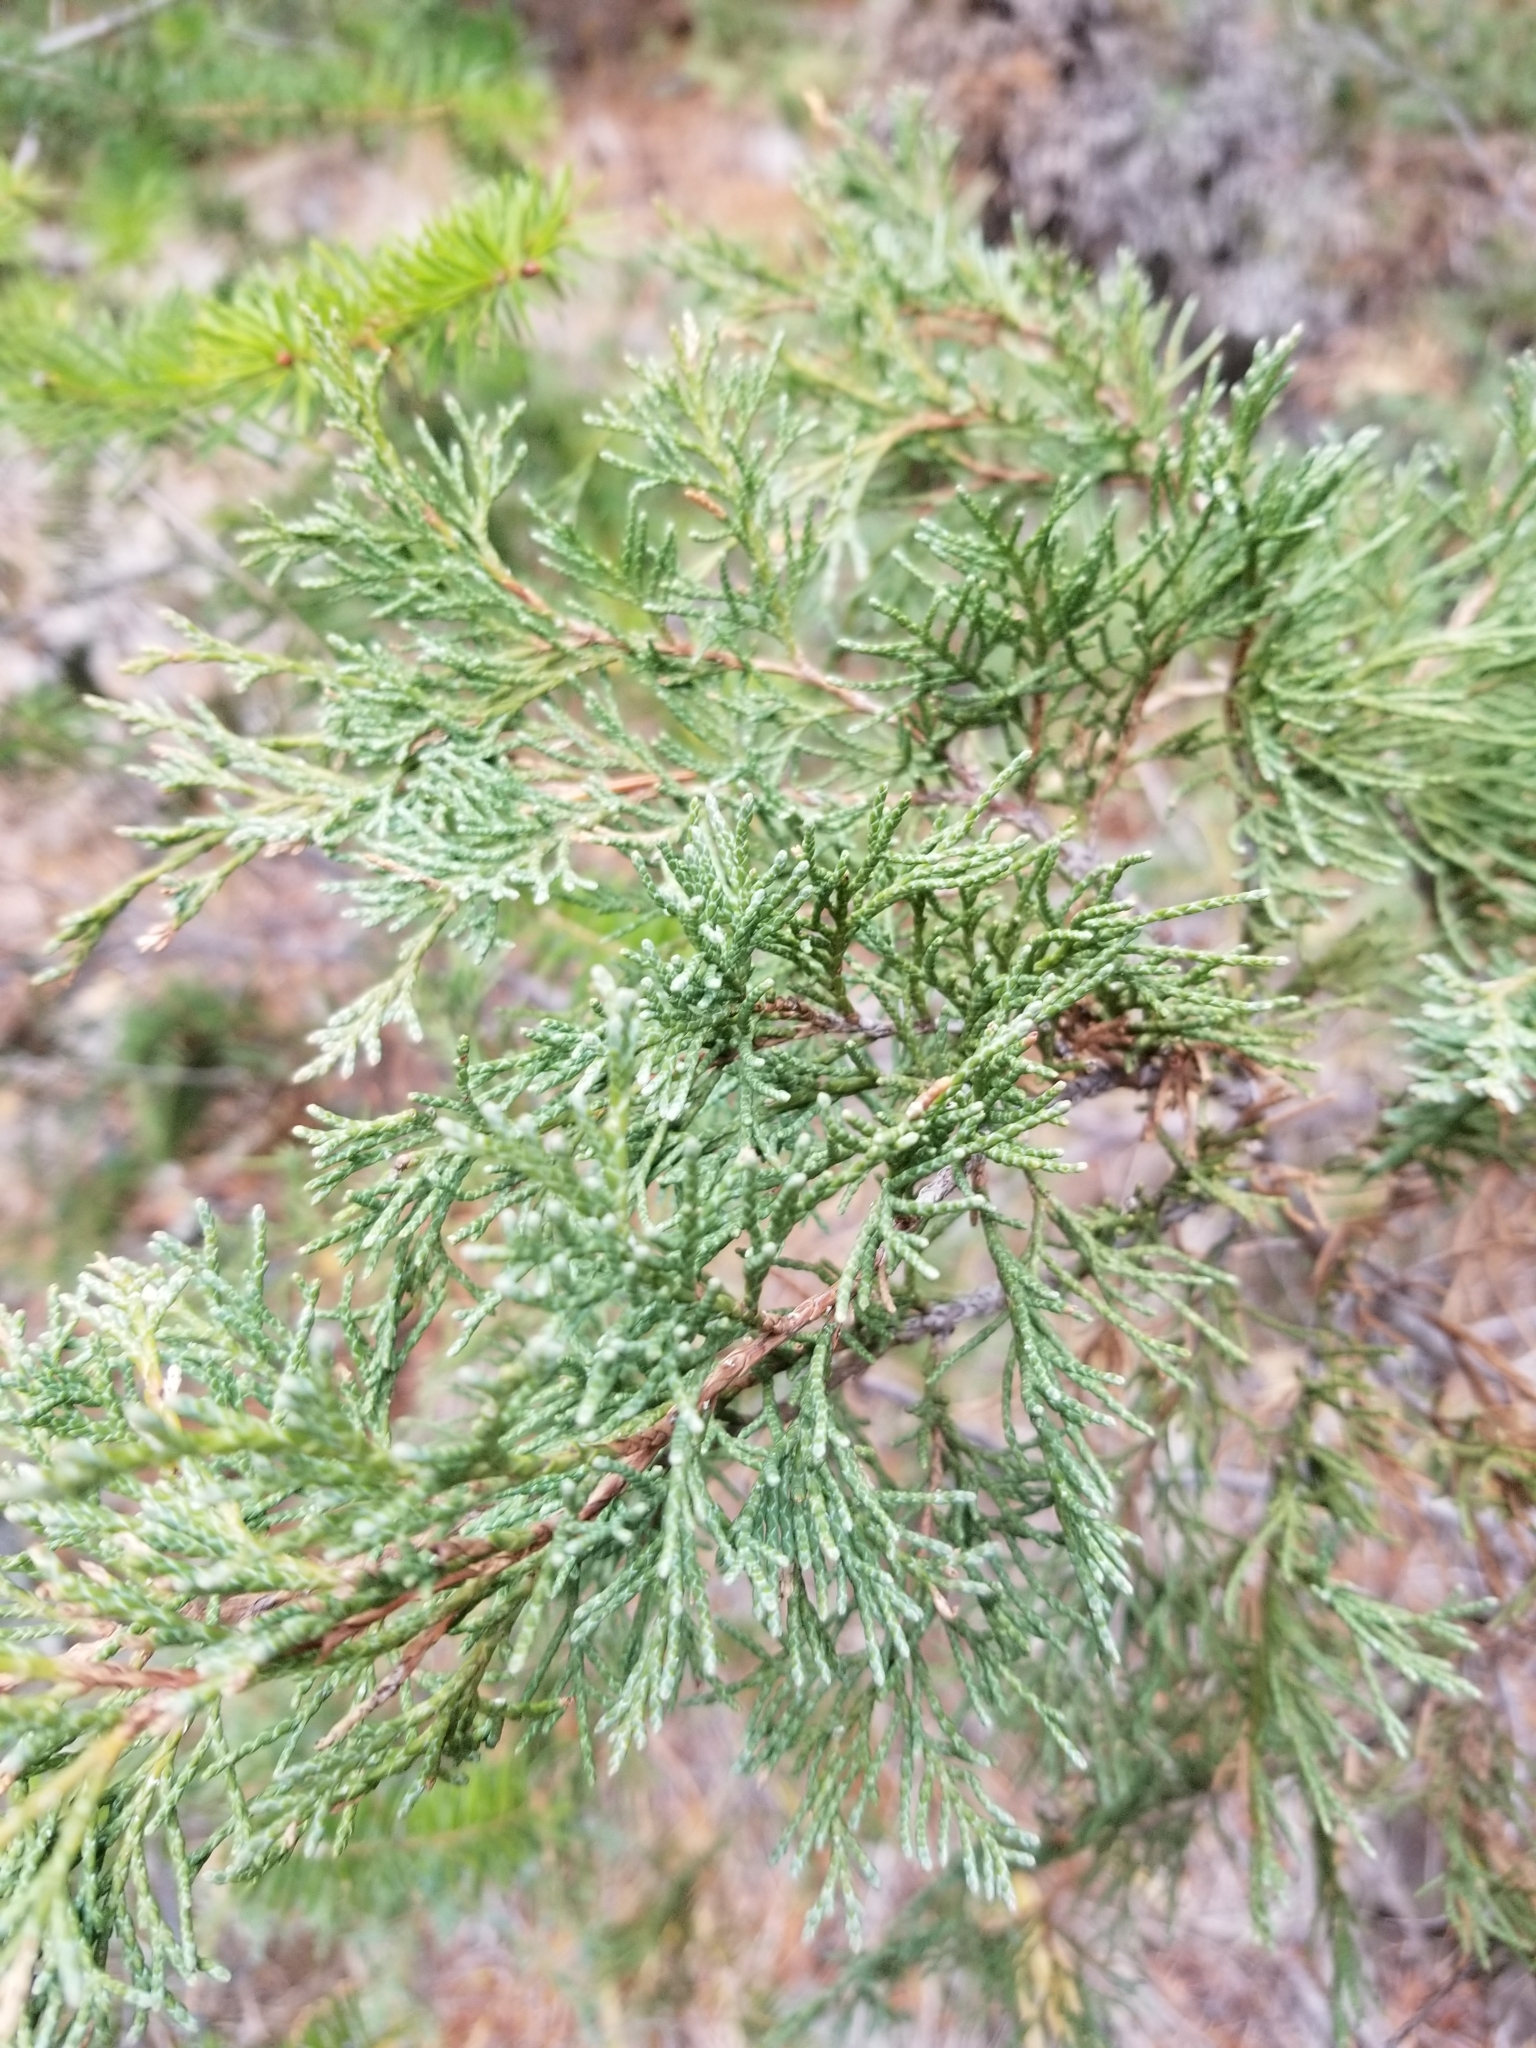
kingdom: Plantae
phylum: Tracheophyta
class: Pinopsida
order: Pinales
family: Cupressaceae
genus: Juniperus
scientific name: Juniperus scopulorum
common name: Rocky mountain juniper
